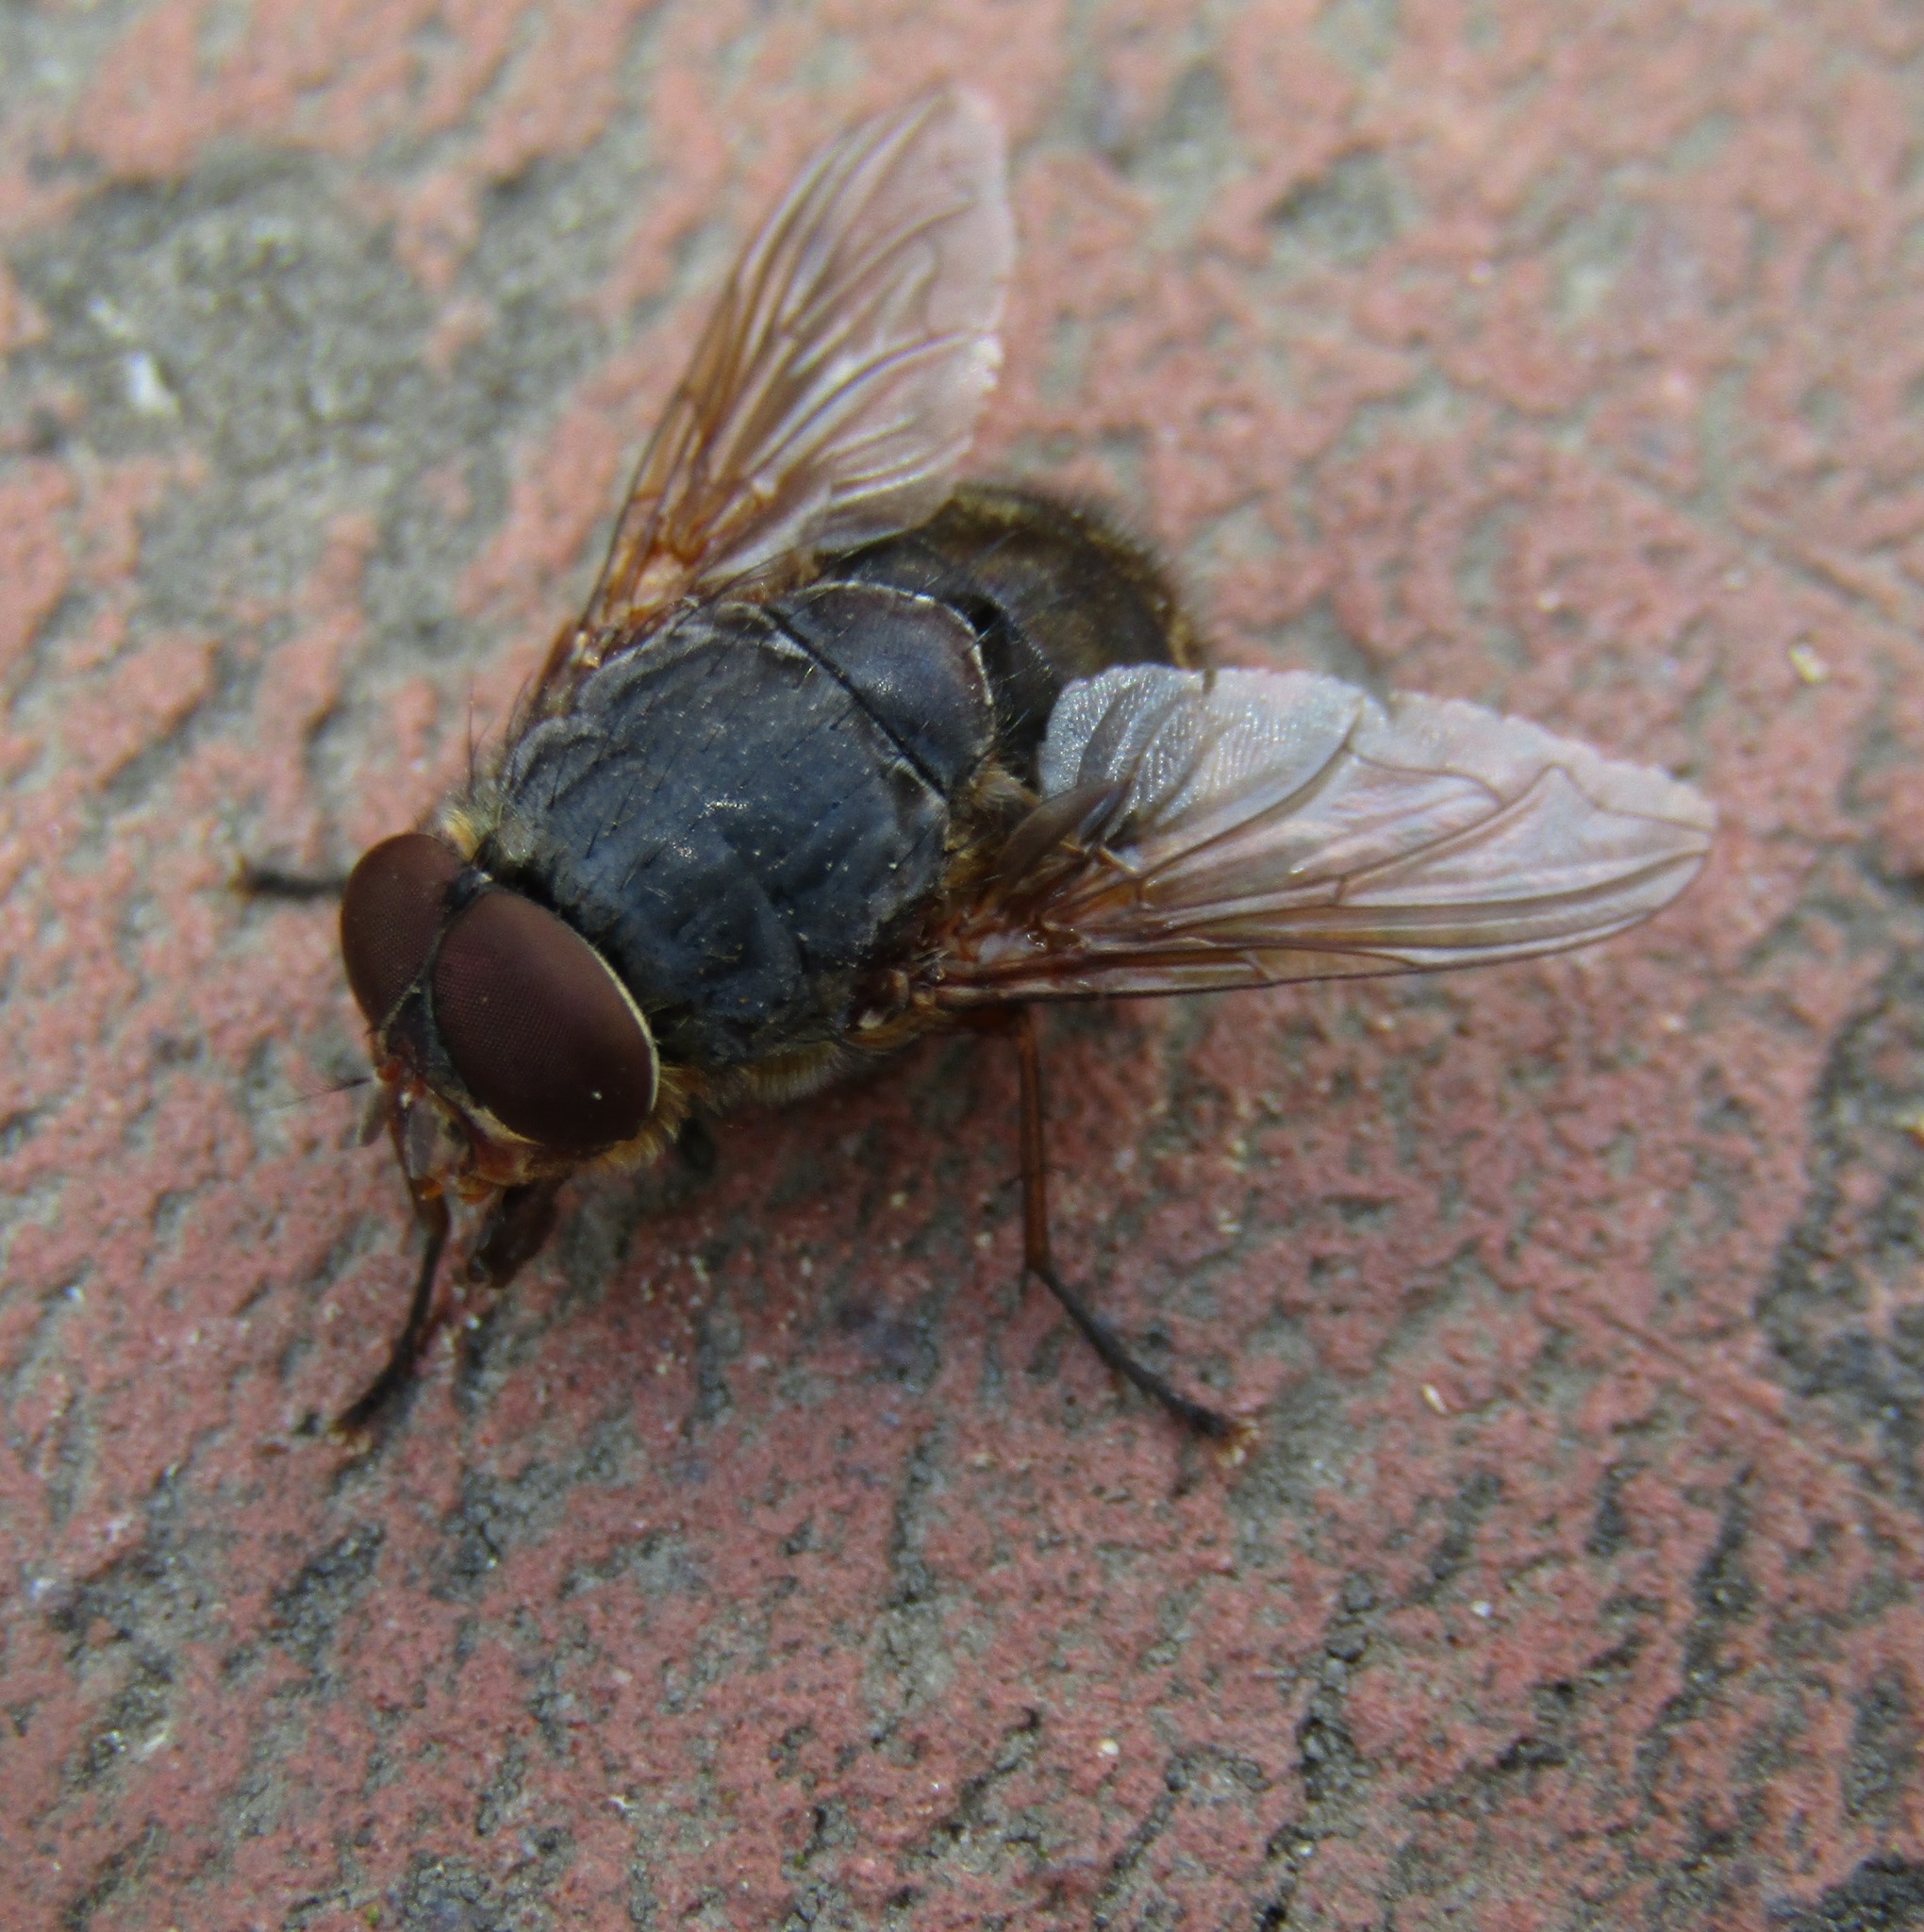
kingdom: Animalia
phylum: Arthropoda
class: Insecta
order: Diptera
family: Calliphoridae
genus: Calliphora
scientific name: Calliphora stygia
